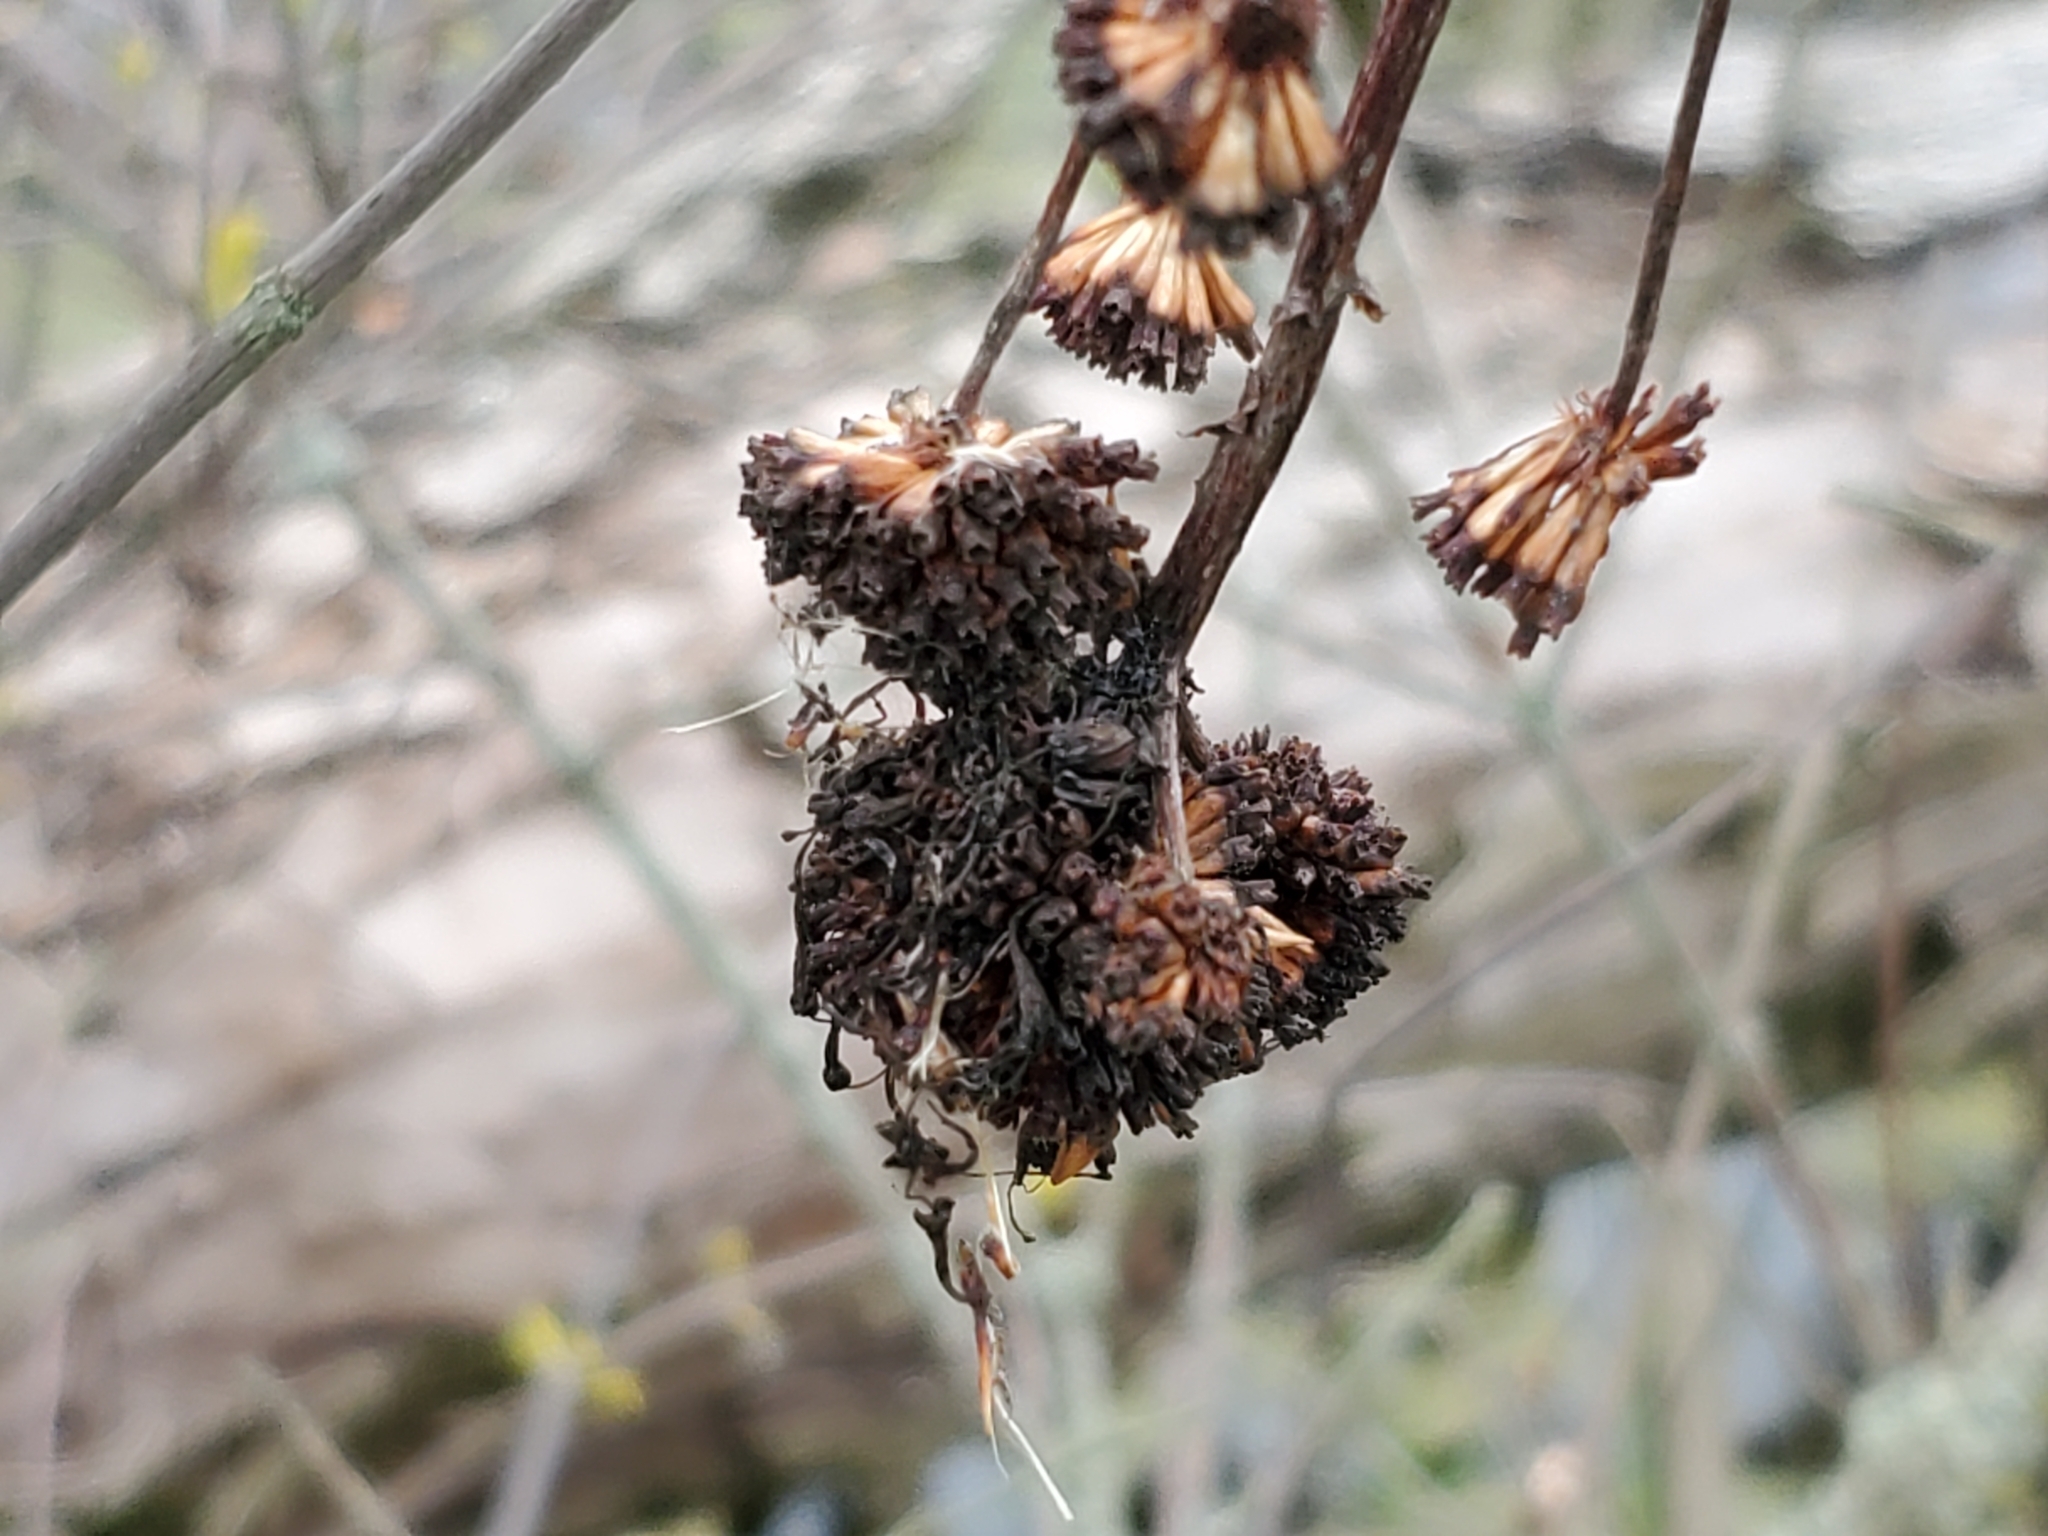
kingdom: Plantae
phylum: Tracheophyta
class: Magnoliopsida
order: Gentianales
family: Rubiaceae
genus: Cephalanthus
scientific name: Cephalanthus occidentalis
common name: Button-willow
